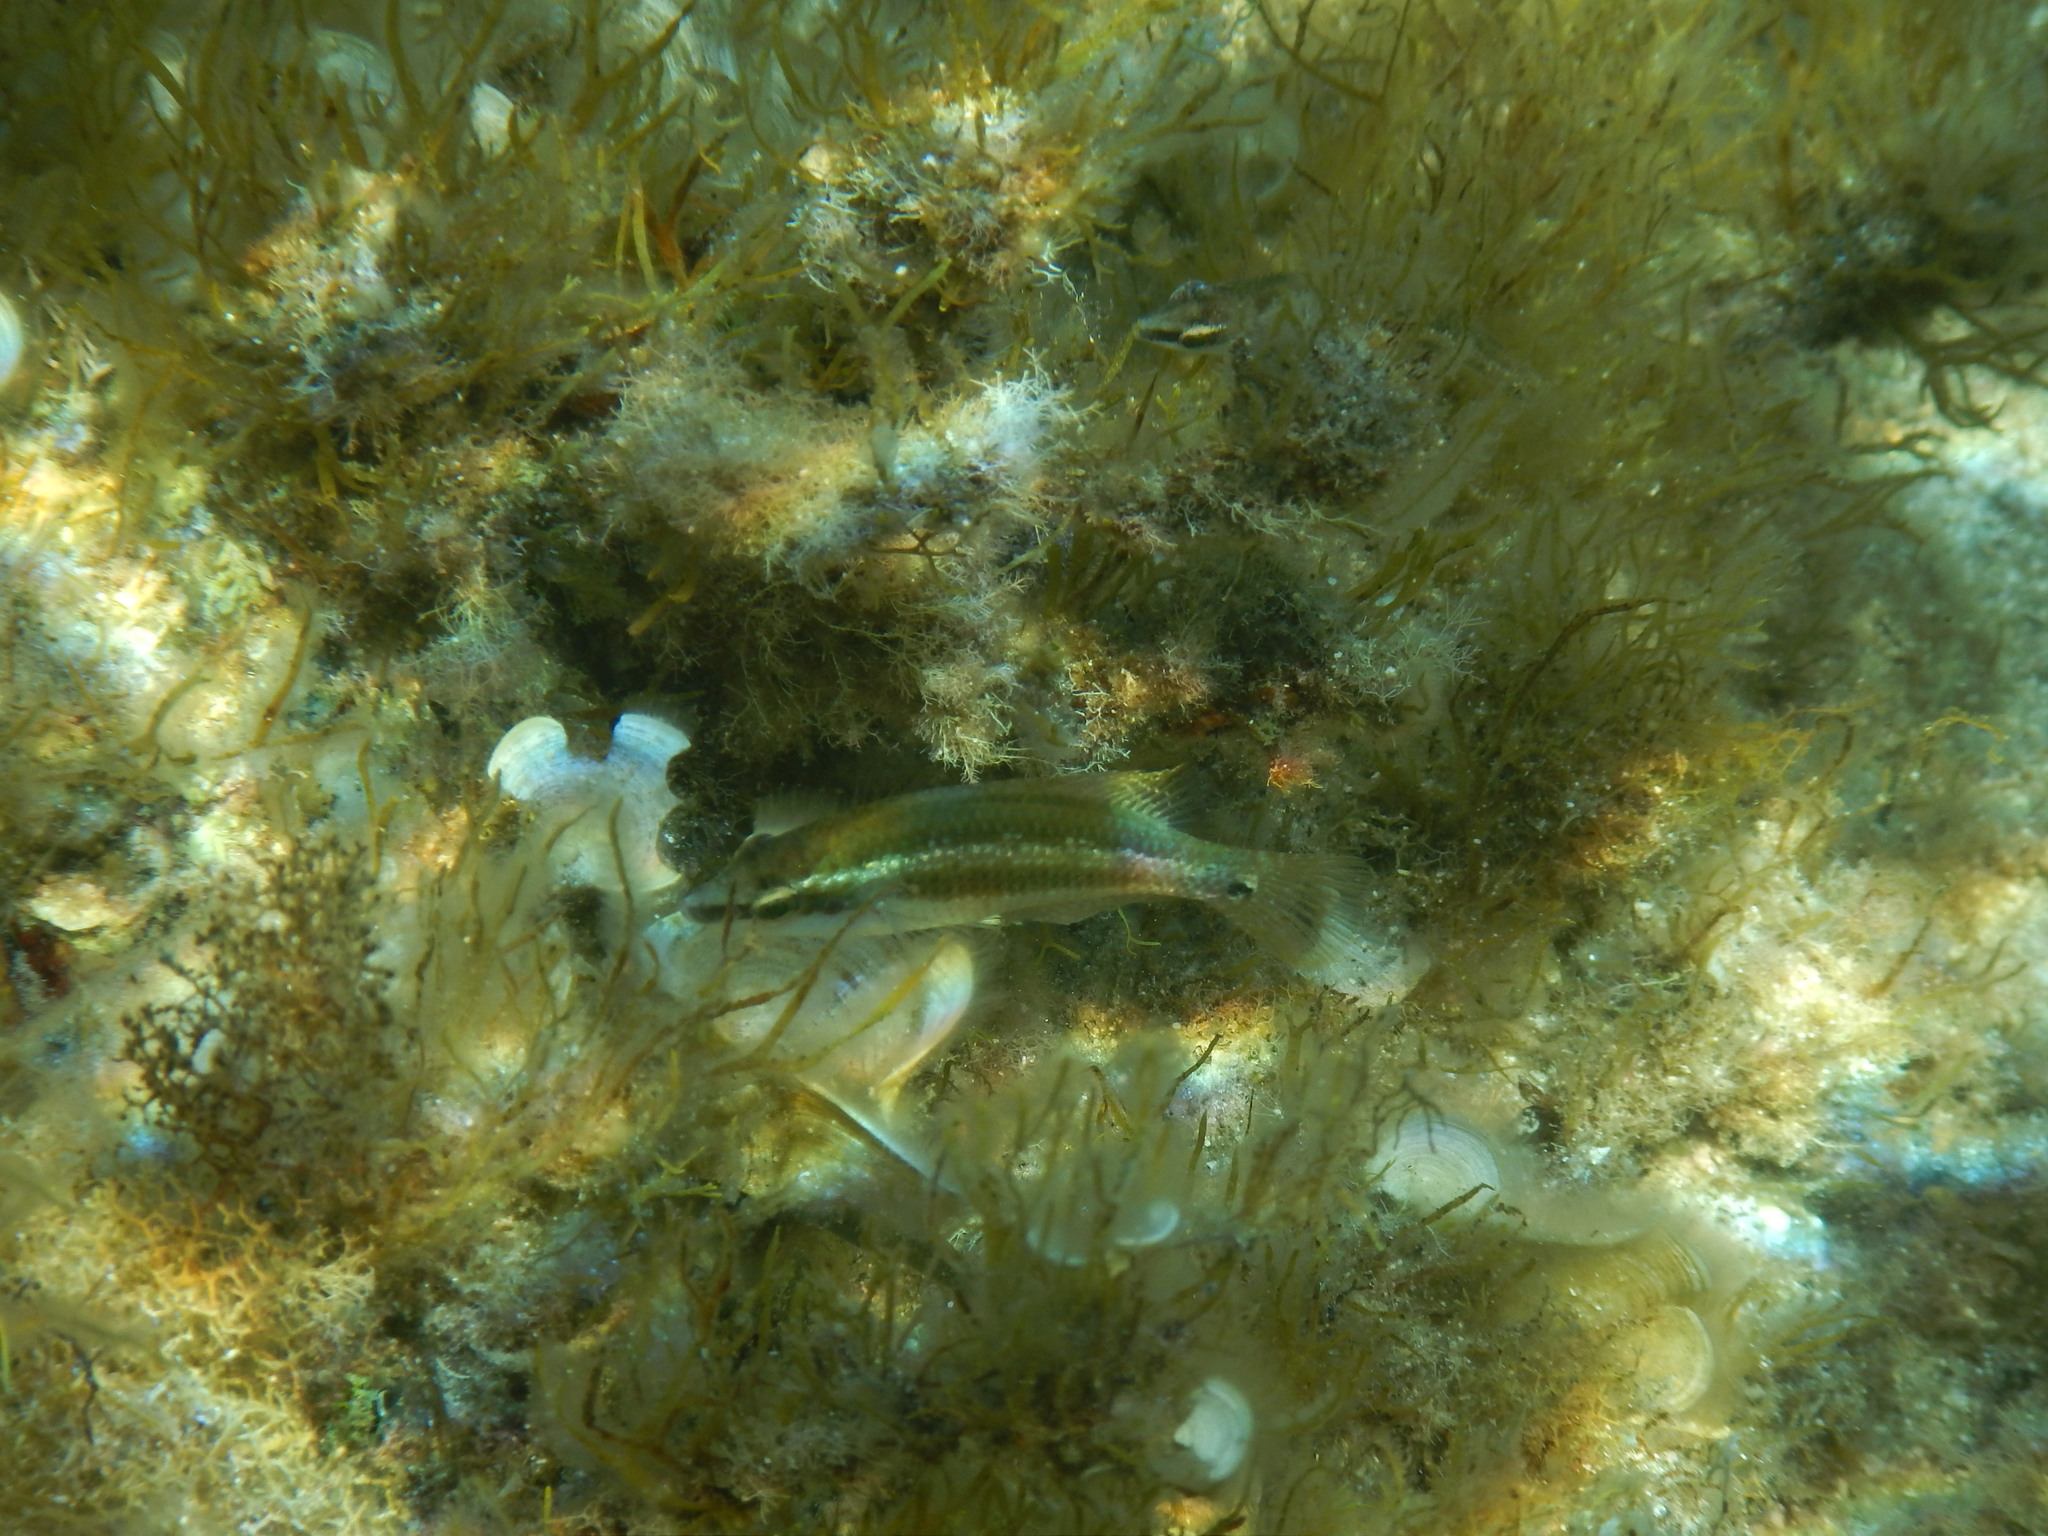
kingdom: Animalia
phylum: Chordata
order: Perciformes
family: Labridae
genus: Symphodus
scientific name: Symphodus ocellatus
